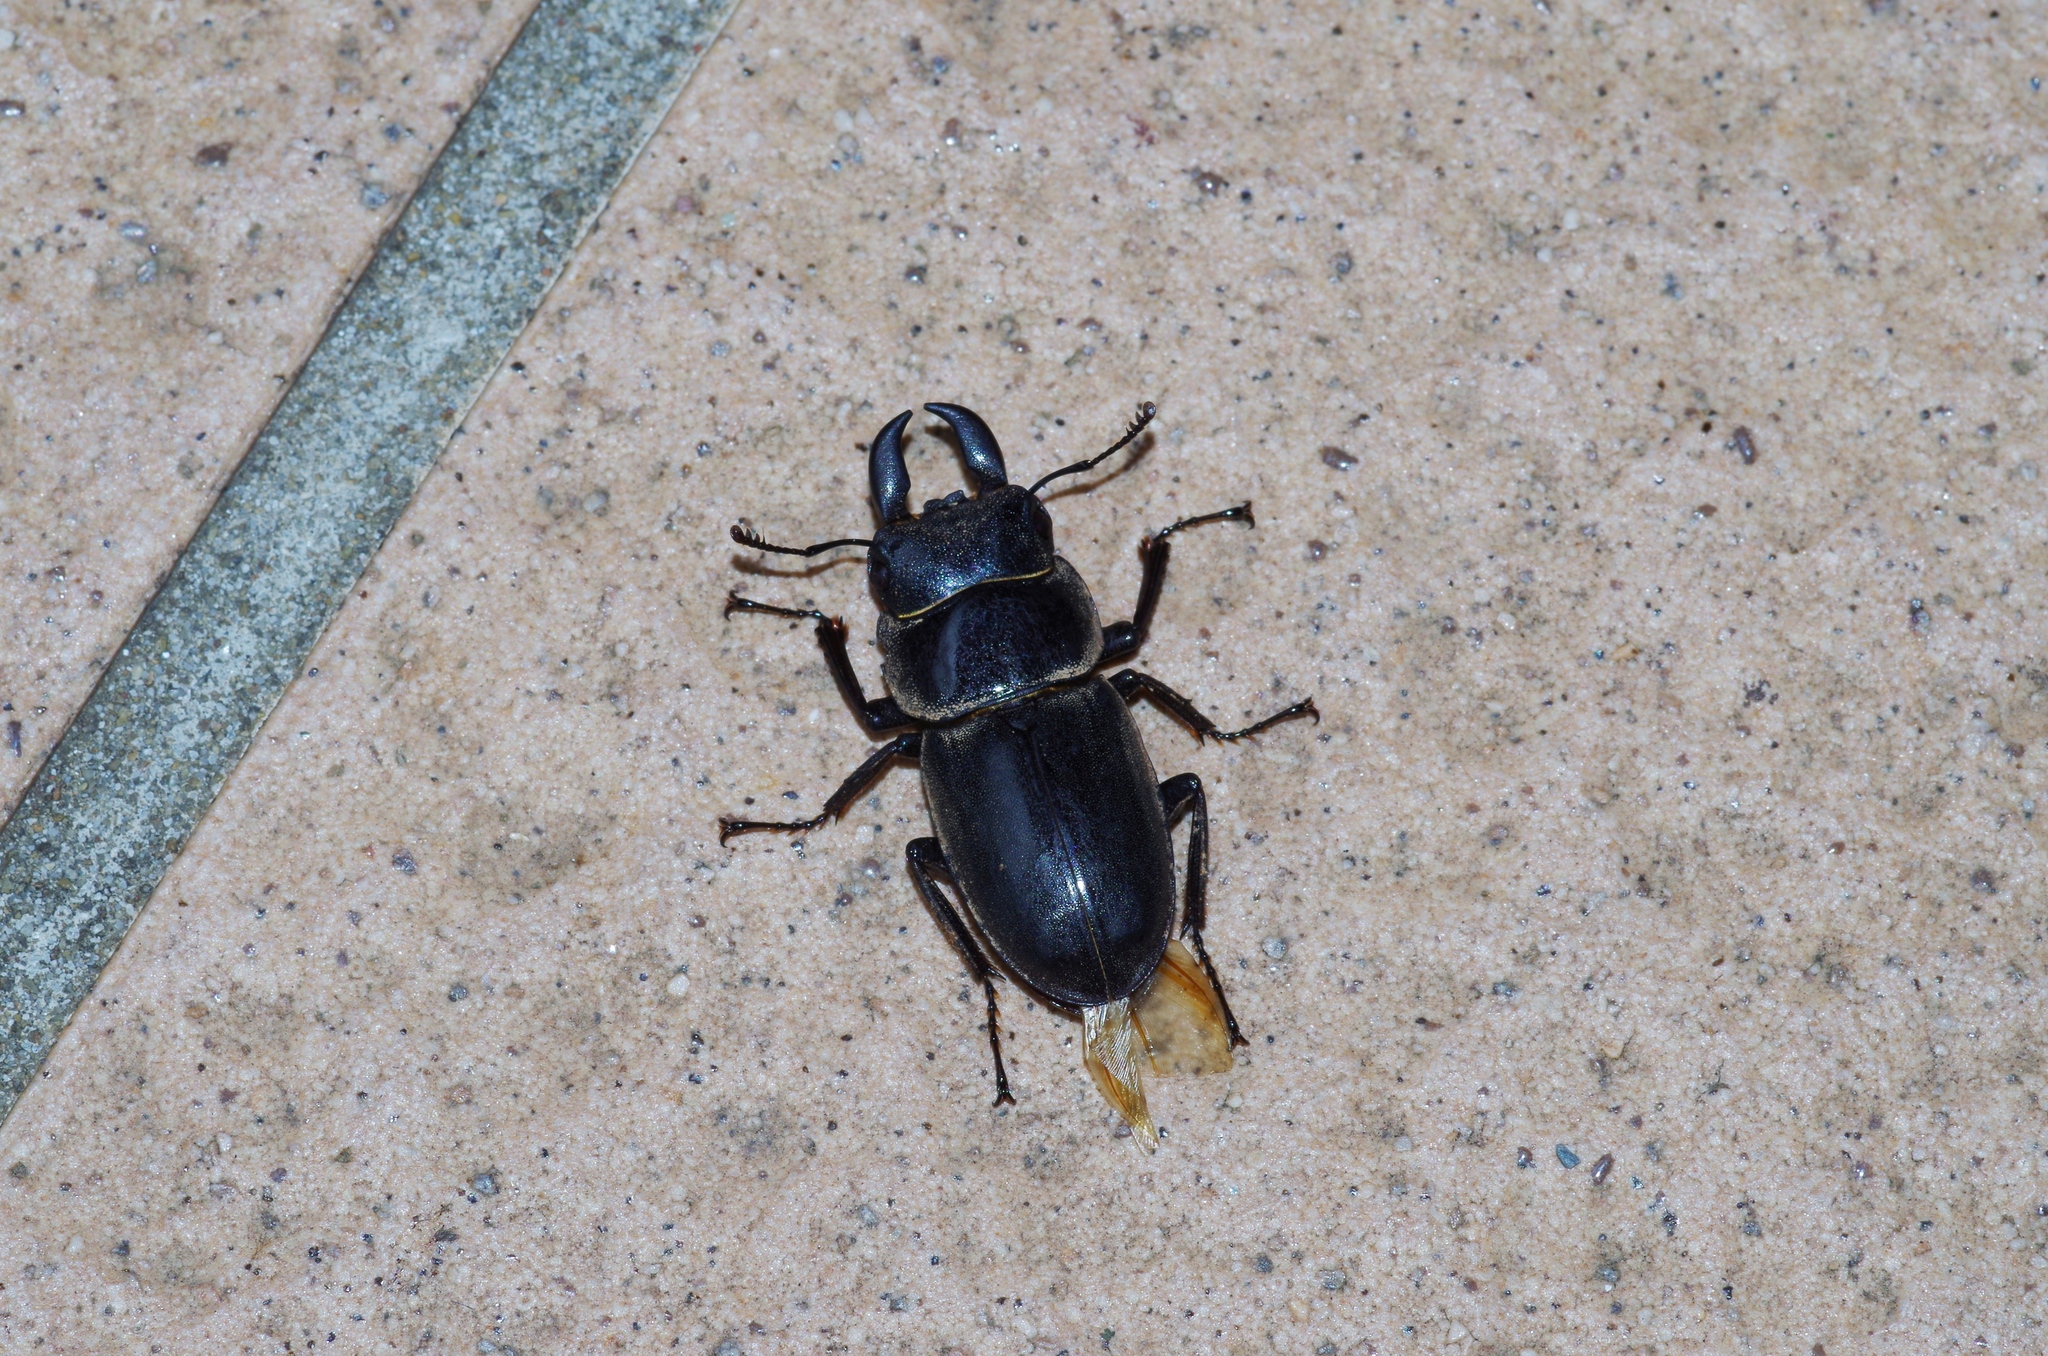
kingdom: Animalia
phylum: Arthropoda
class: Insecta
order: Coleoptera
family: Lucanidae
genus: Serrognathus
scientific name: Serrognathus titanus
